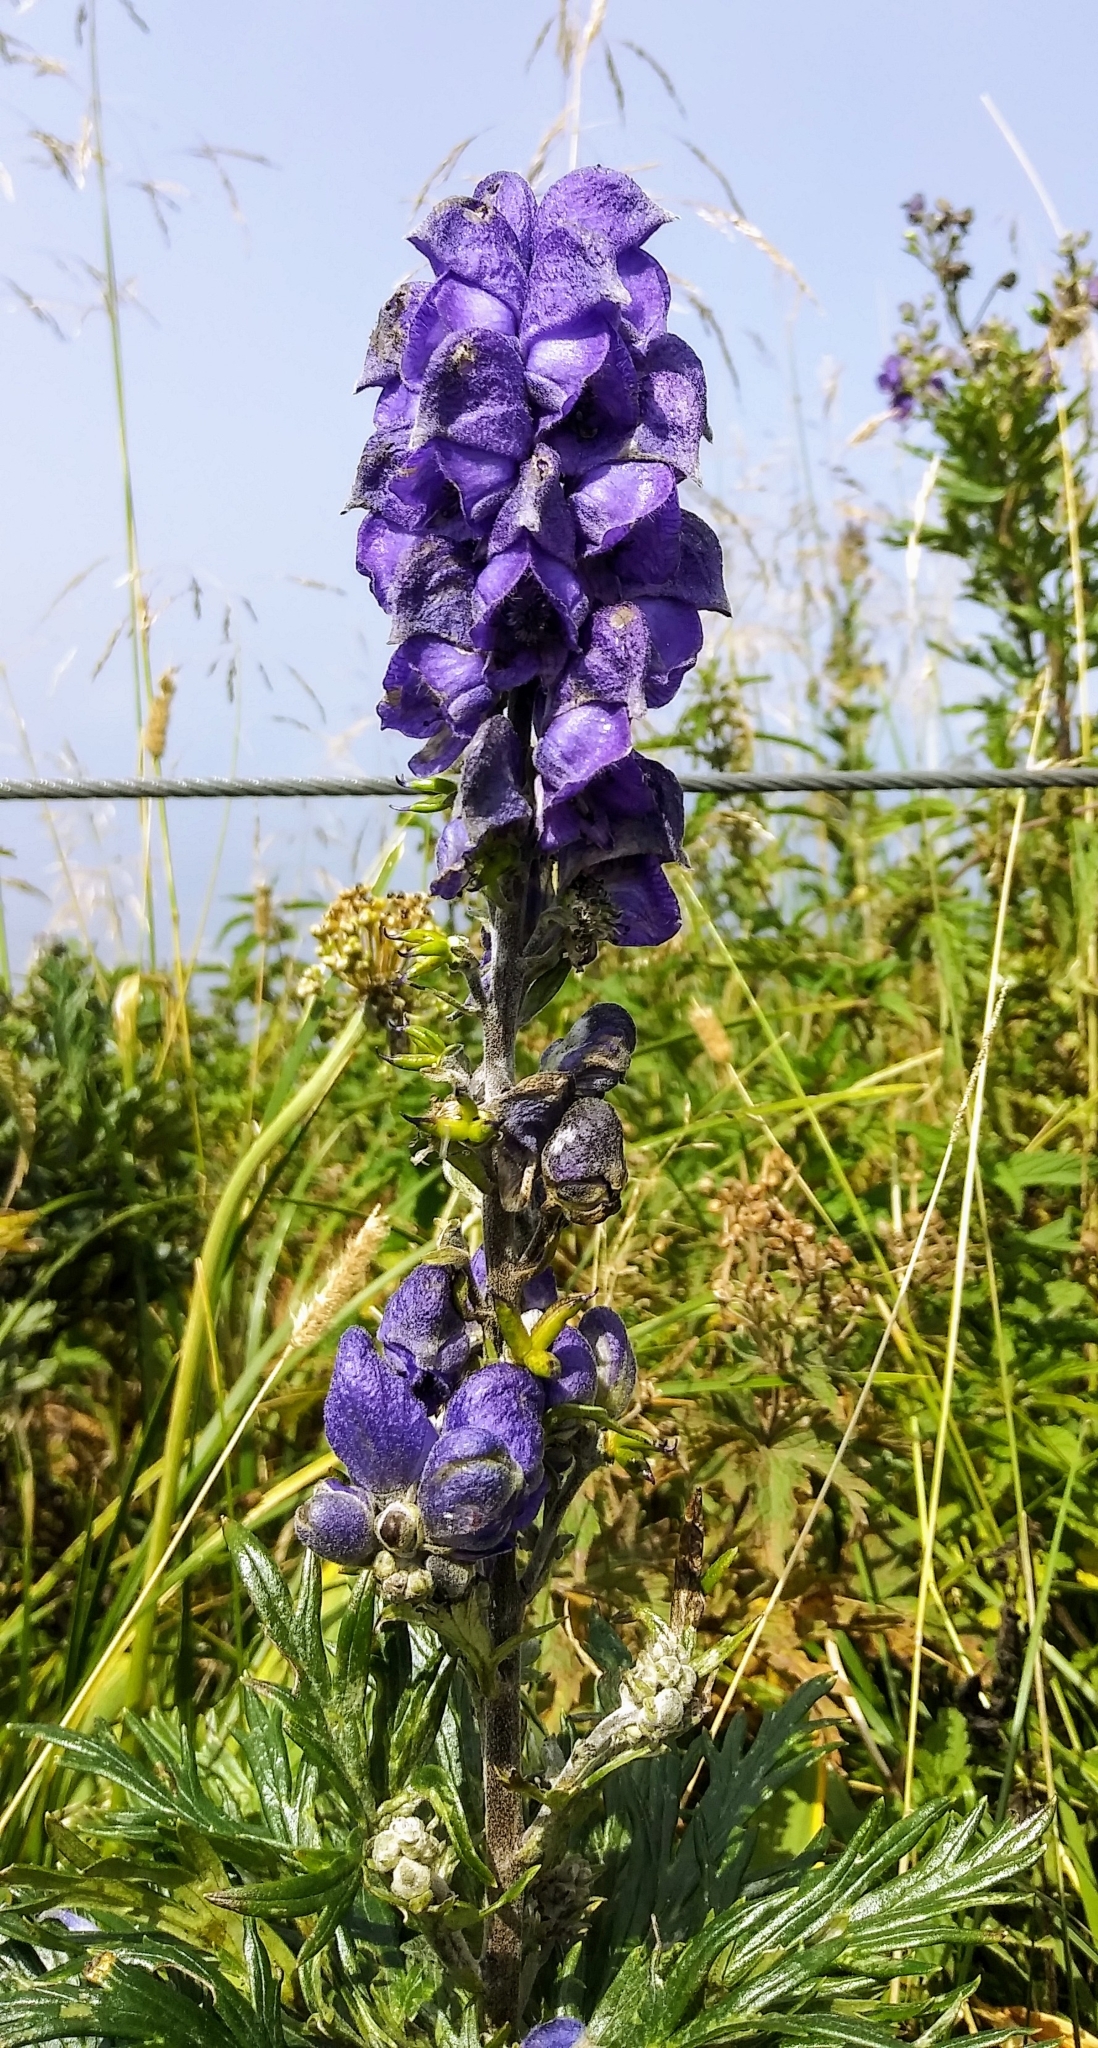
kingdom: Plantae
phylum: Tracheophyta
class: Magnoliopsida
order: Ranunculales
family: Ranunculaceae
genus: Aconitum
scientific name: Aconitum napellus
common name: Garden monkshood
